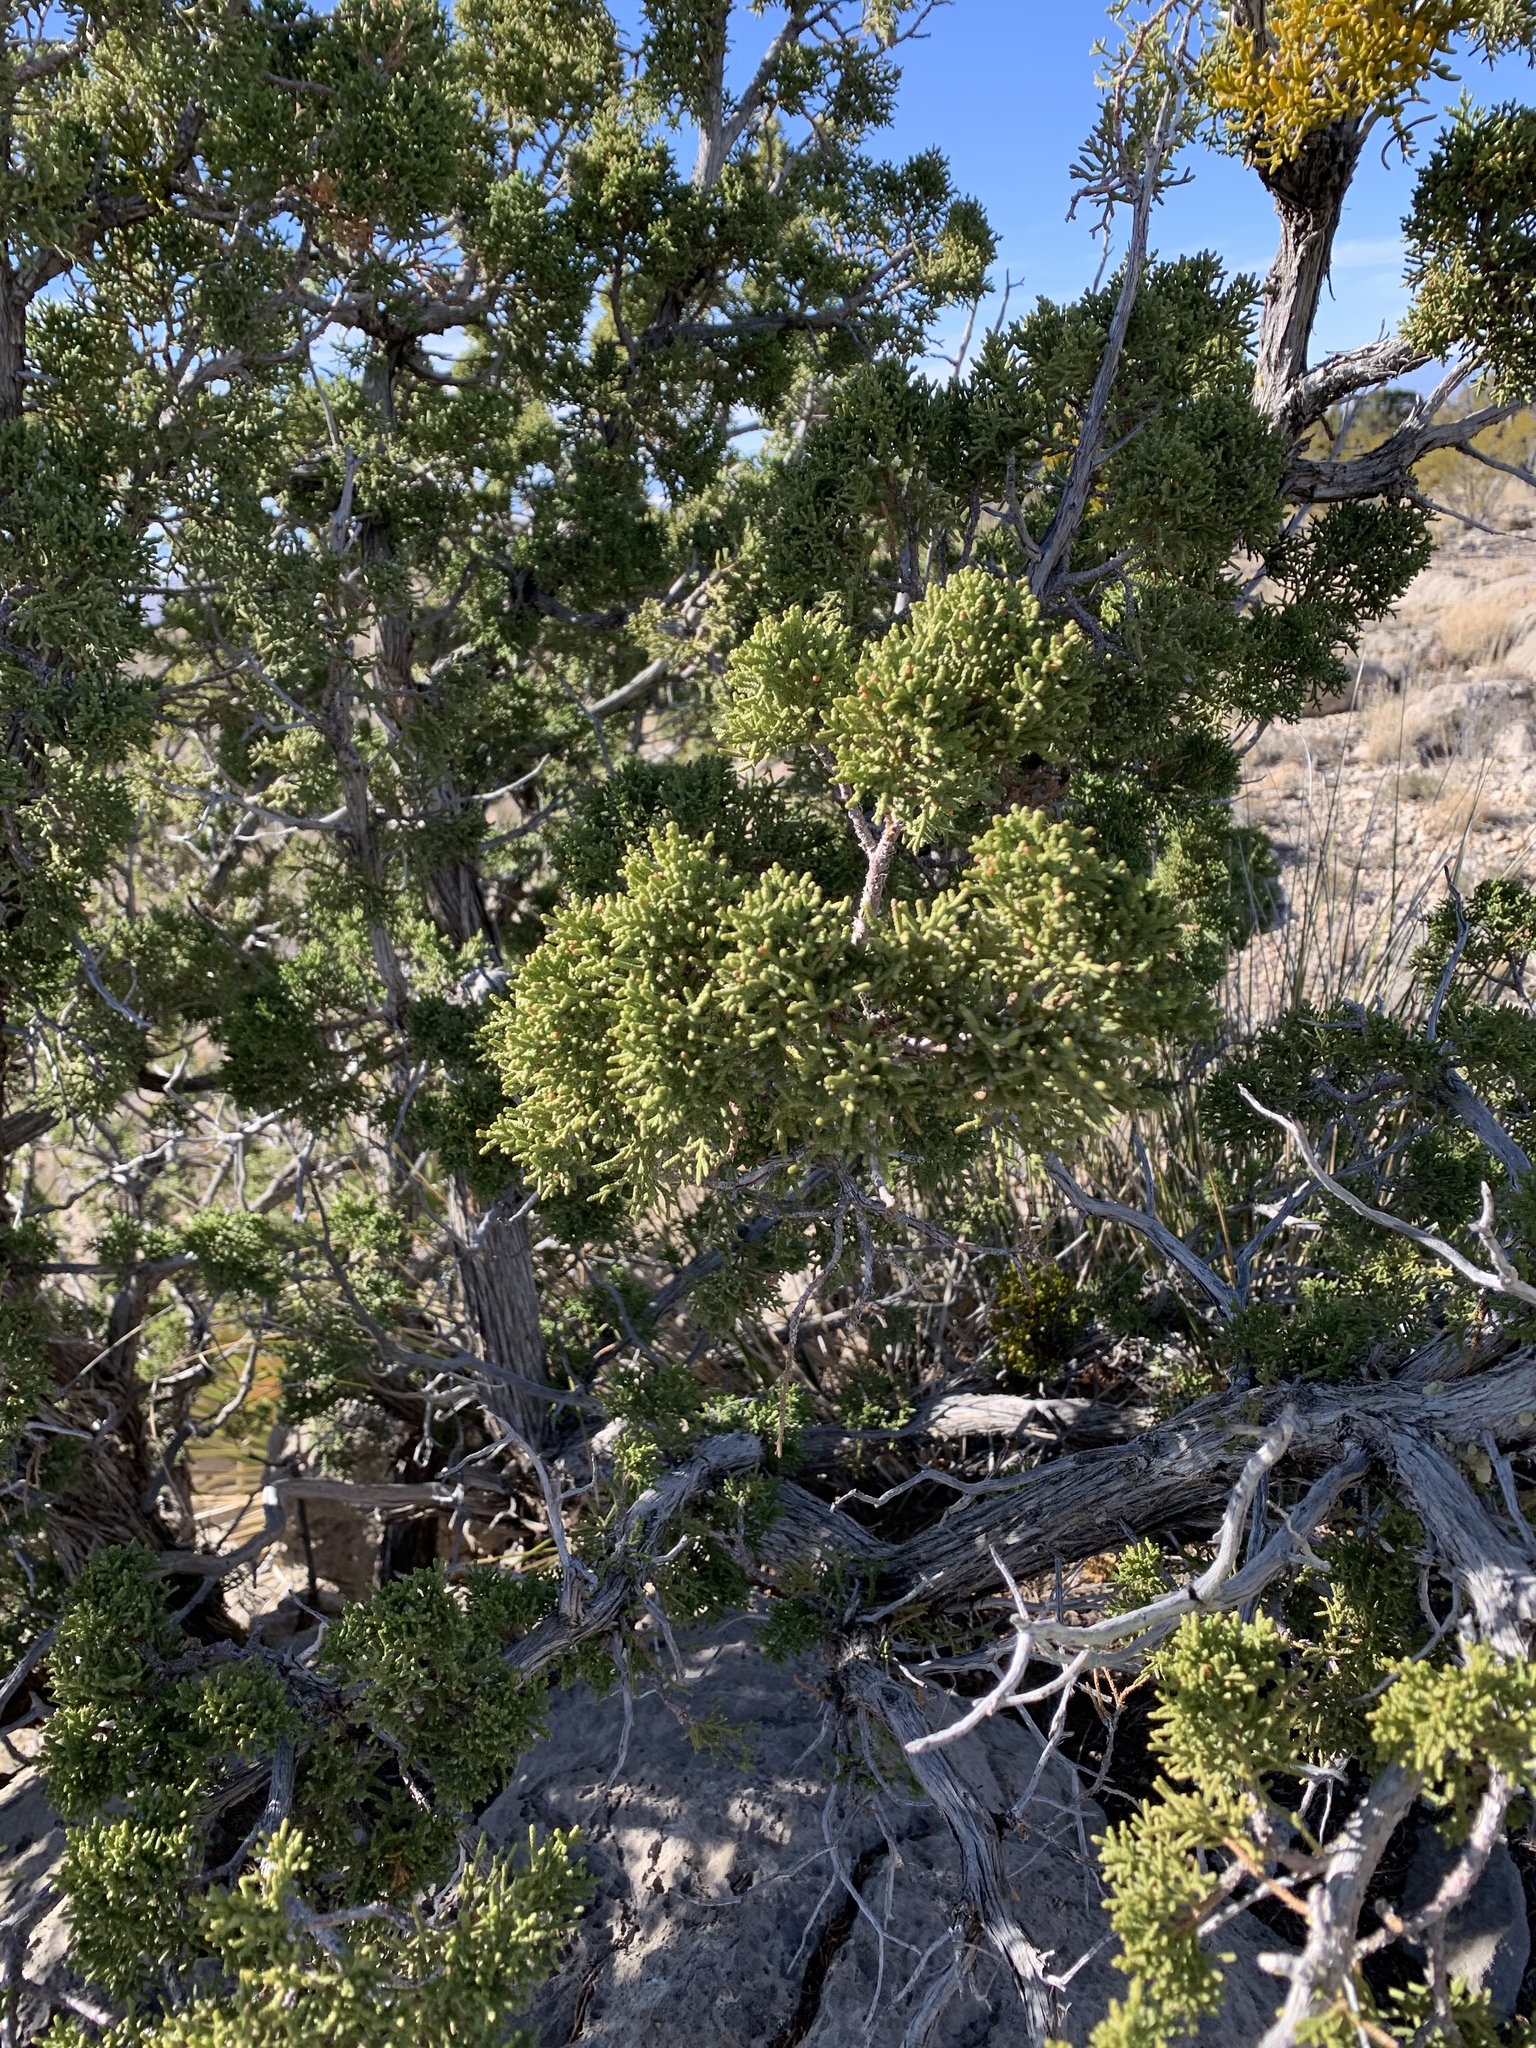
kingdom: Plantae
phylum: Tracheophyta
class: Pinopsida
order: Pinales
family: Cupressaceae
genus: Juniperus
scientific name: Juniperus monosperma
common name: One-seed juniper
